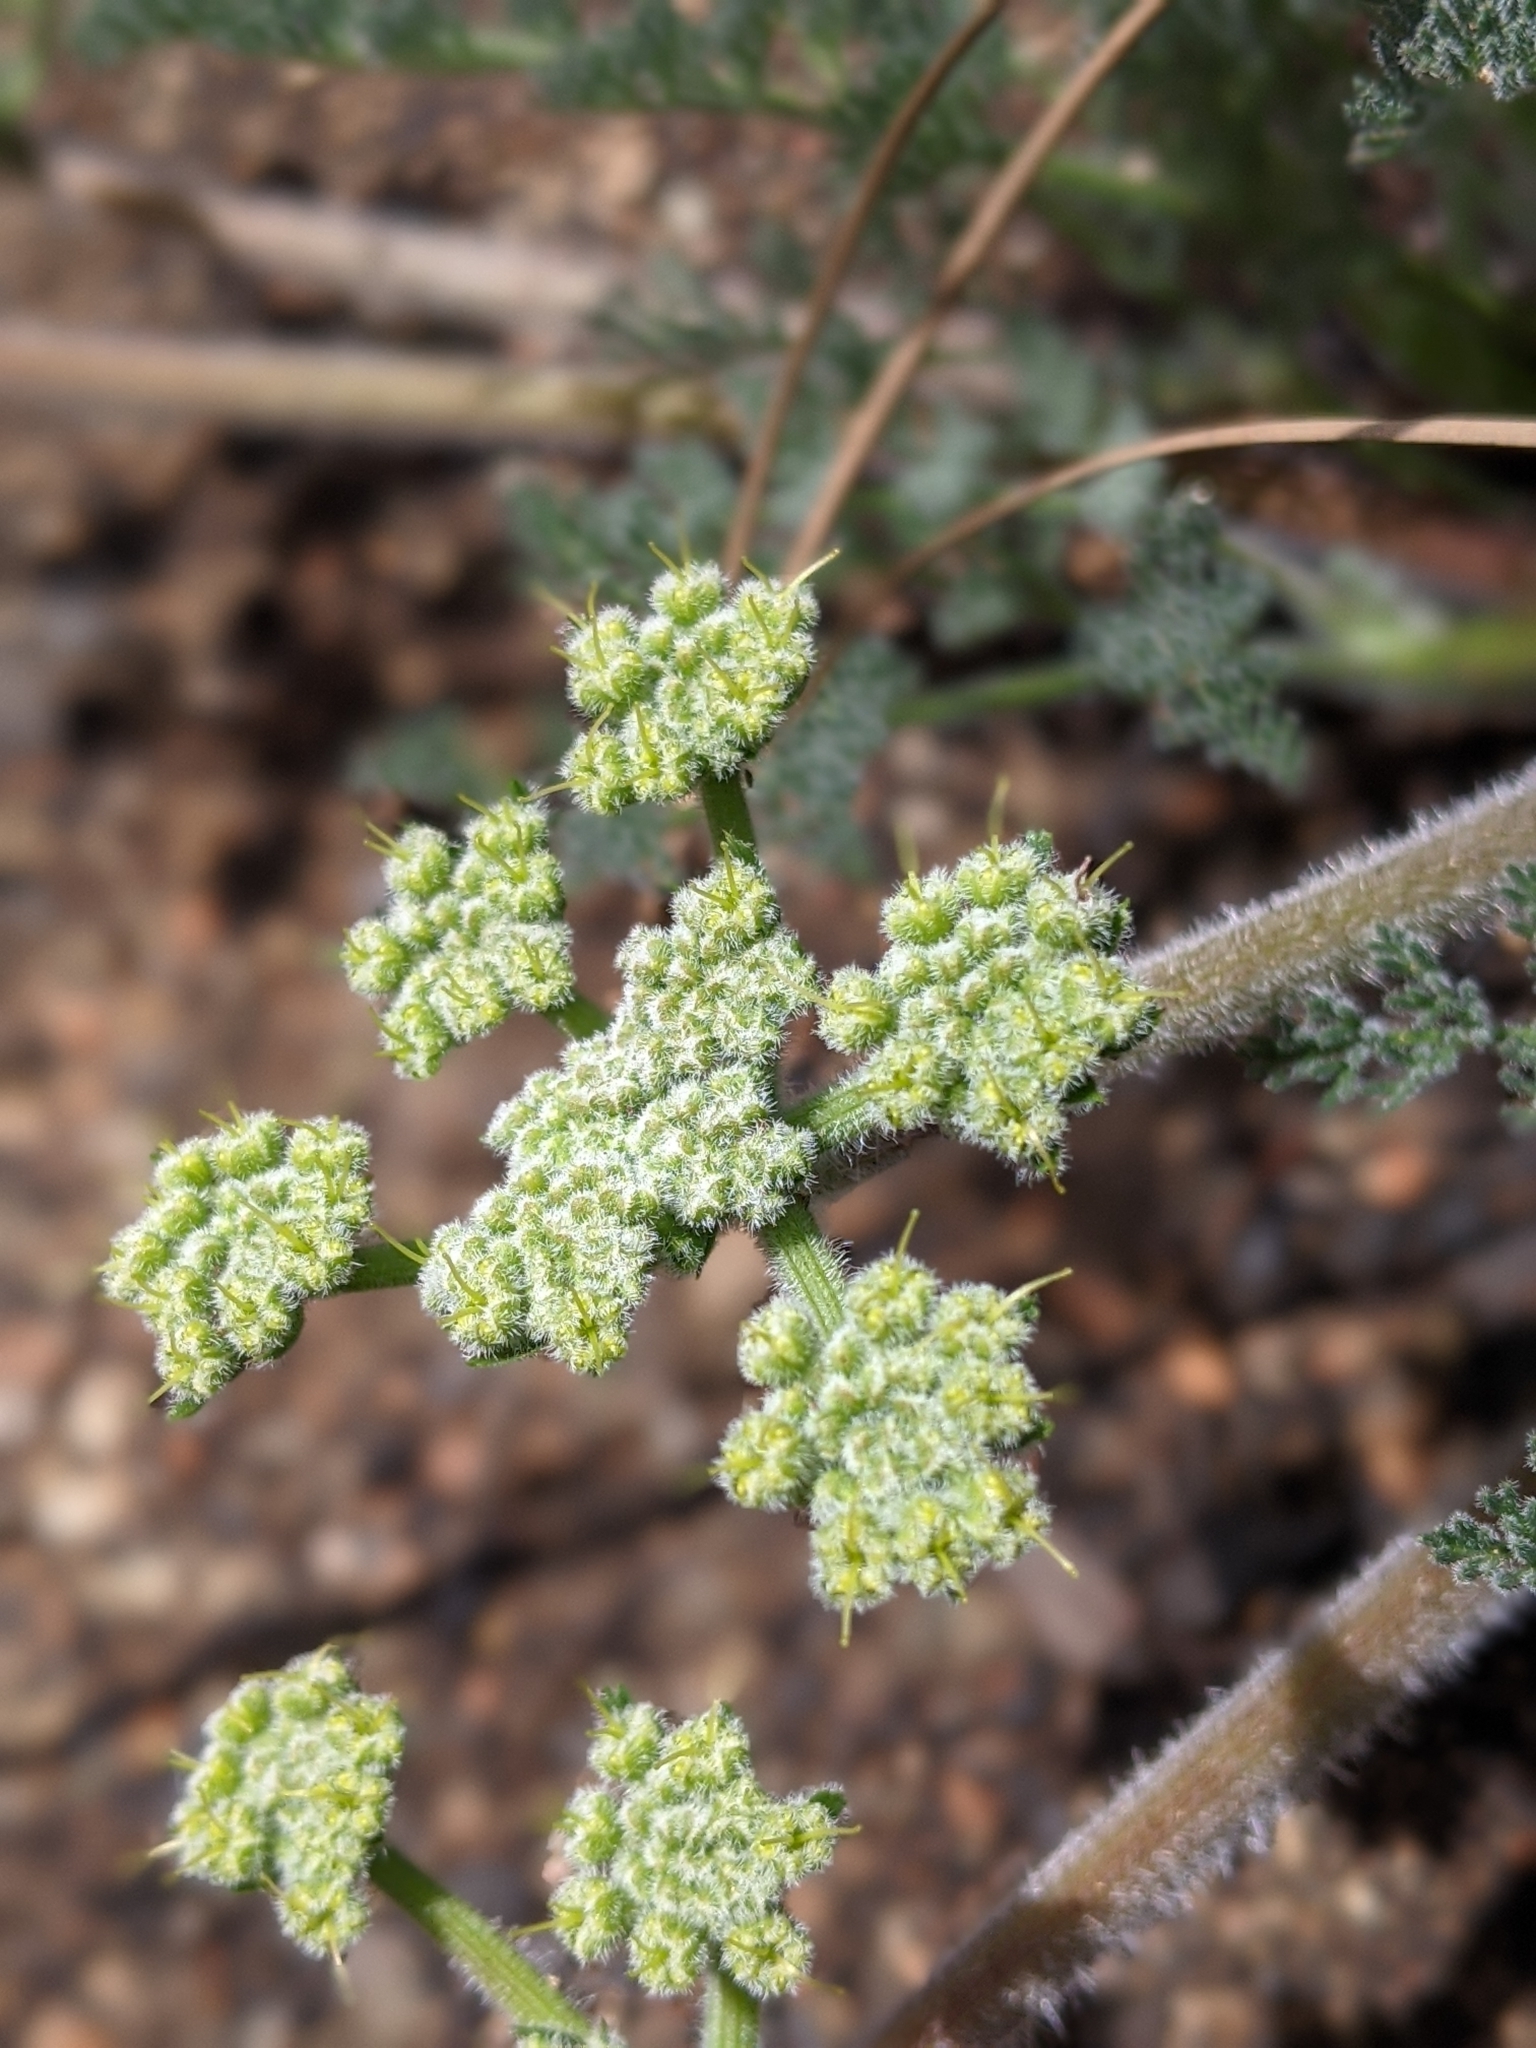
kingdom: Plantae
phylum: Tracheophyta
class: Magnoliopsida
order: Apiales
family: Apiaceae
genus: Lomatium
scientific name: Lomatium dasycarpum
